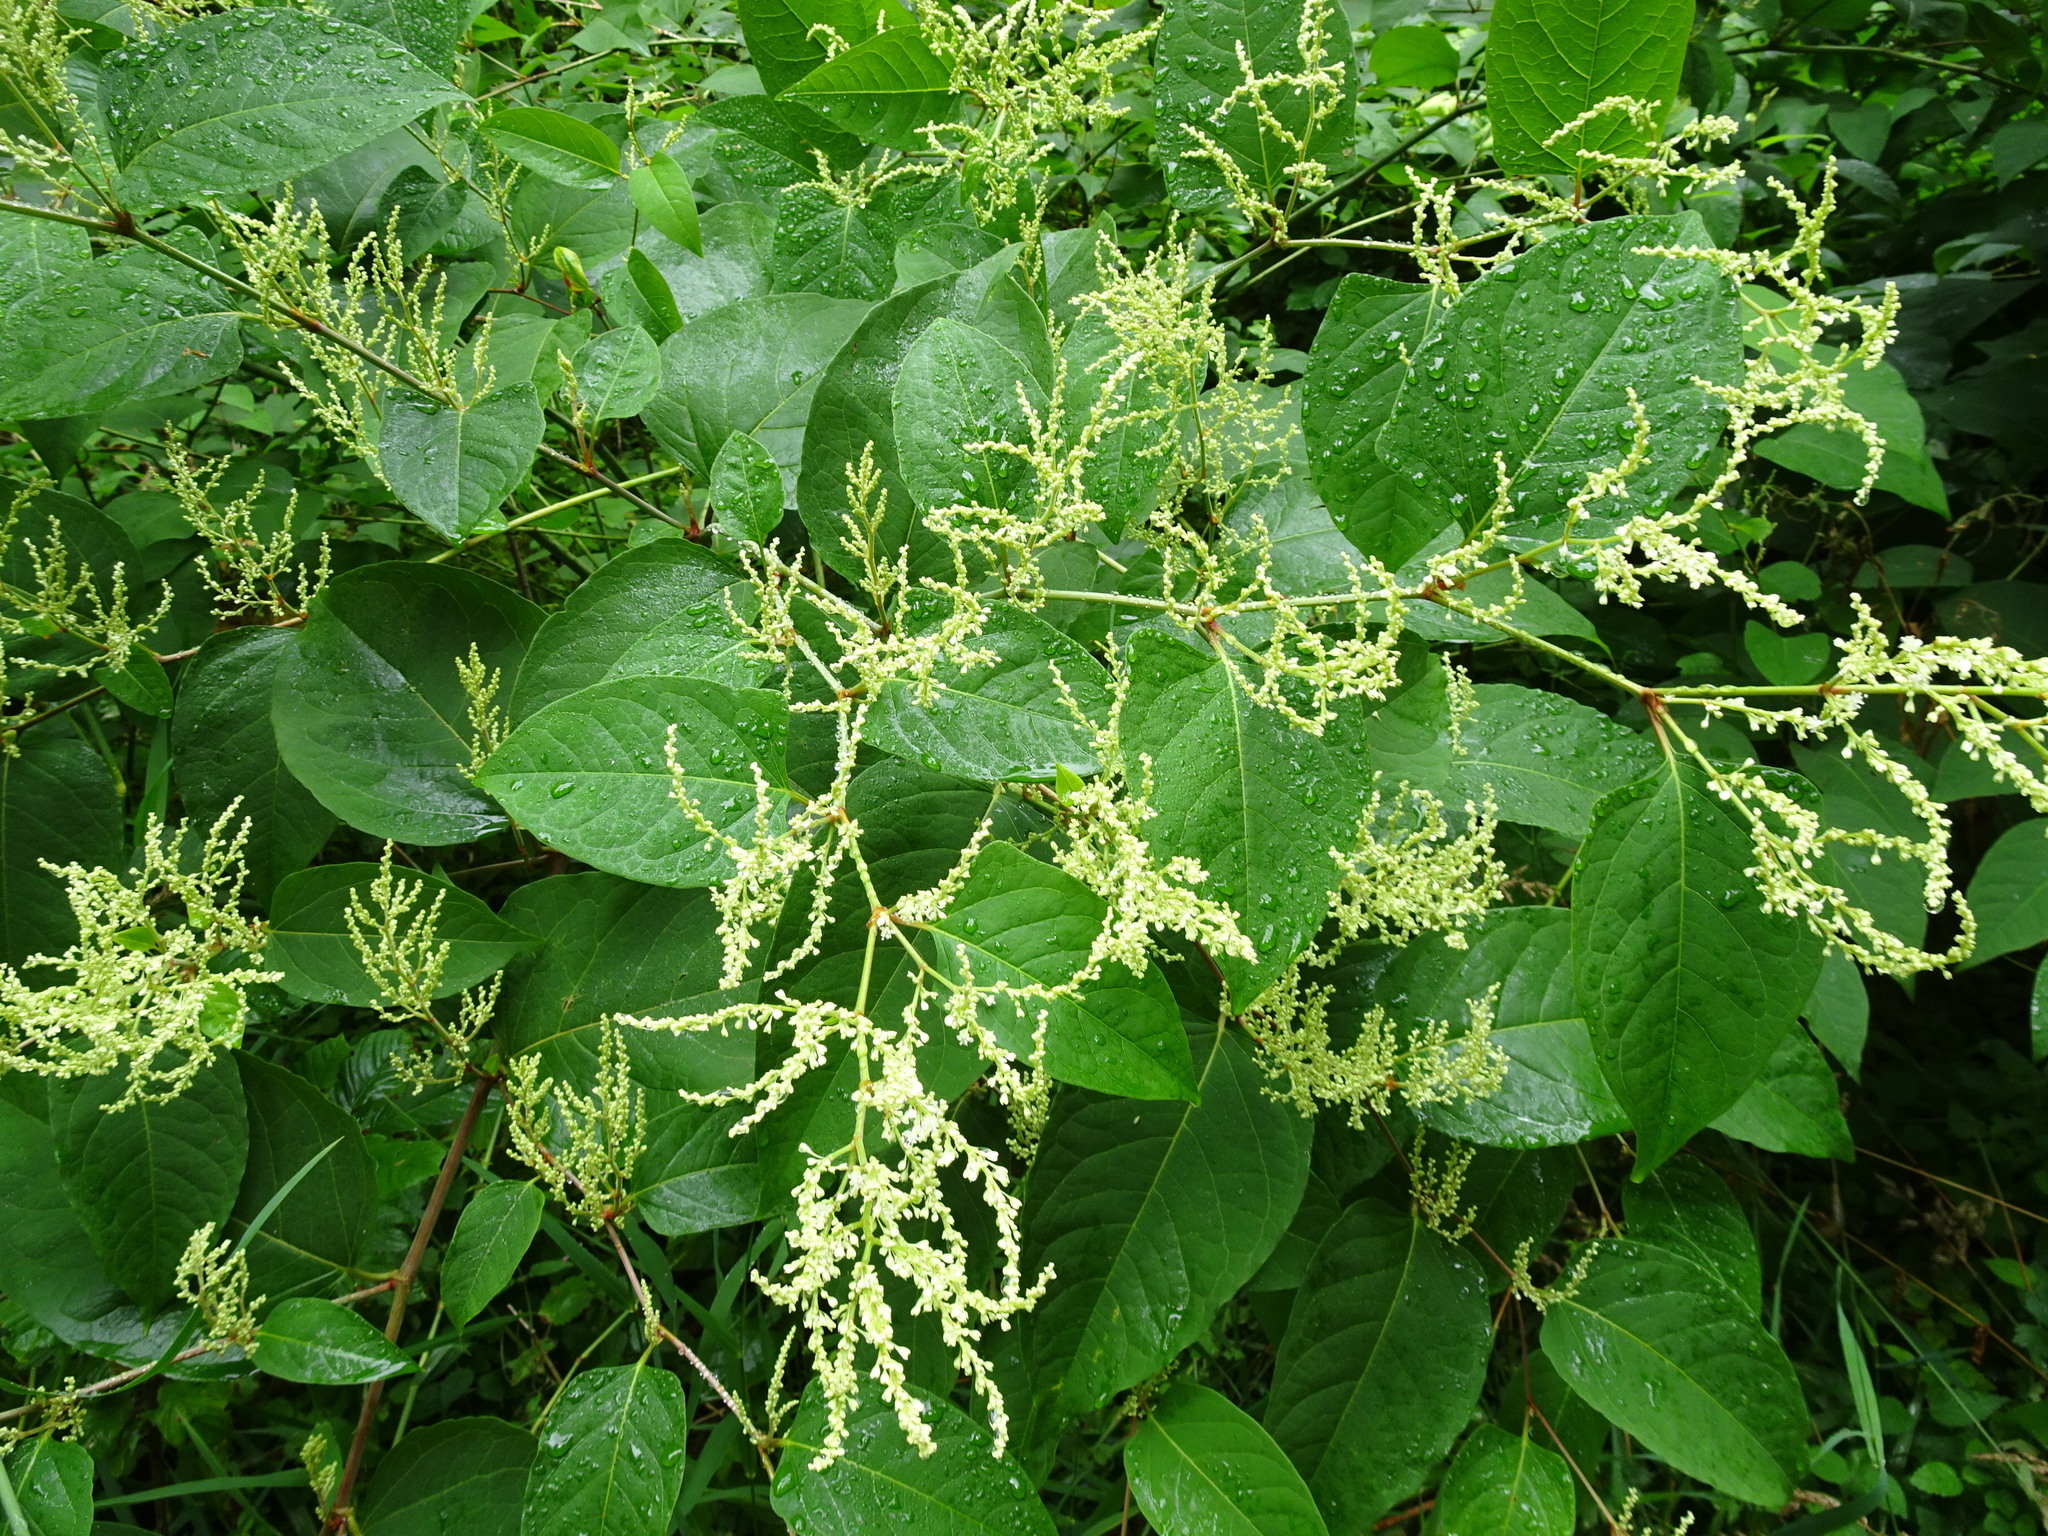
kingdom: Plantae
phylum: Tracheophyta
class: Magnoliopsida
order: Caryophyllales
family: Polygonaceae
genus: Reynoutria
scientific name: Reynoutria japonica
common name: Japanese knotweed
